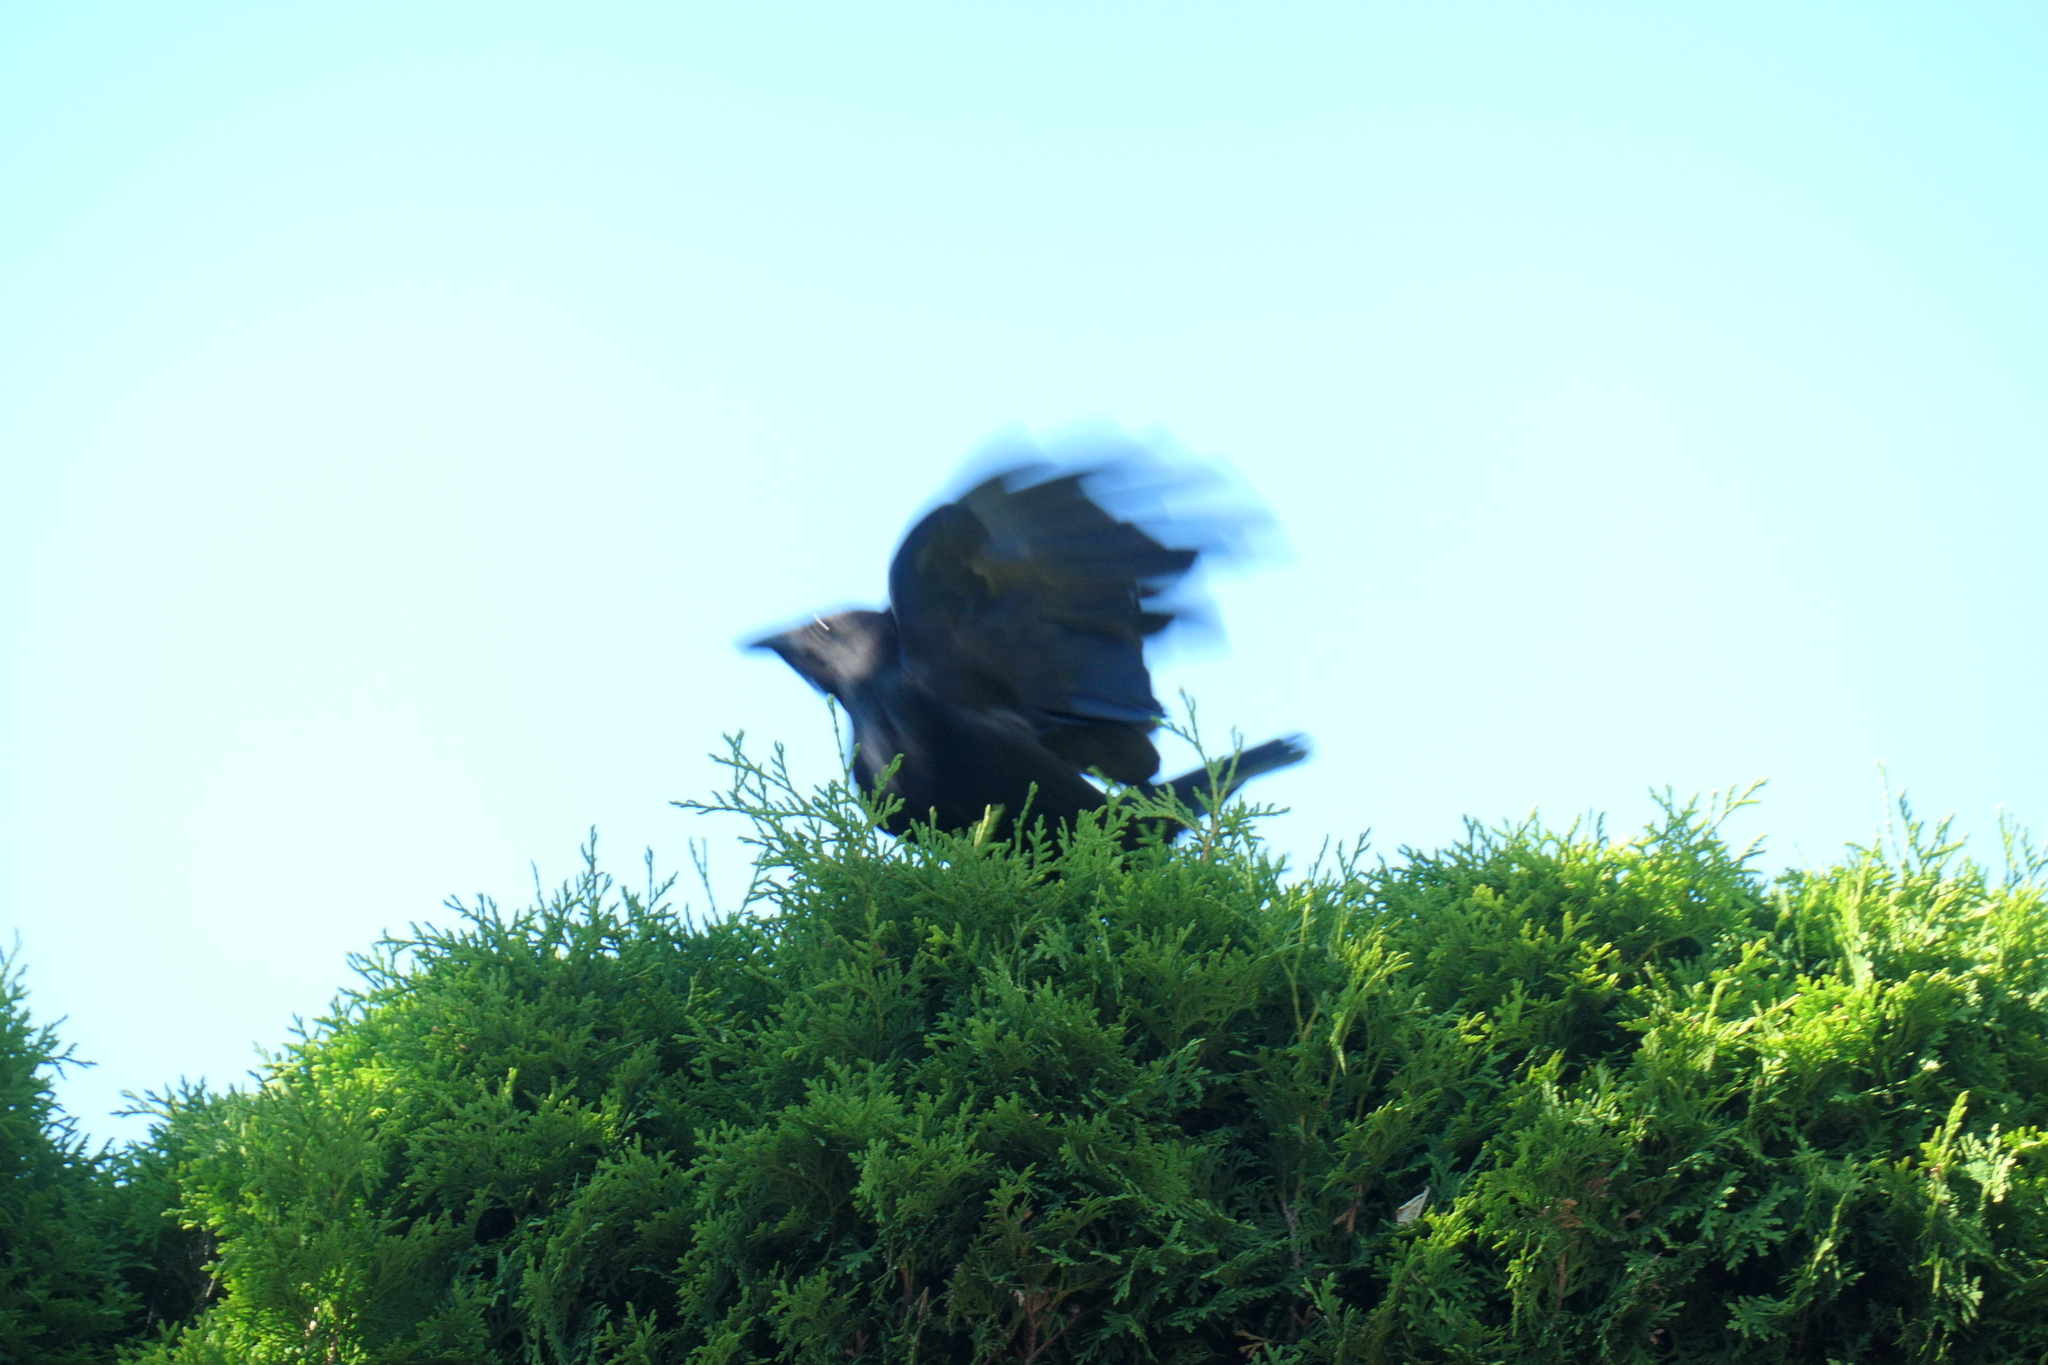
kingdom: Animalia
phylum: Chordata
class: Aves
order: Passeriformes
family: Corvidae
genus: Corvus
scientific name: Corvus brachyrhynchos
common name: American crow
